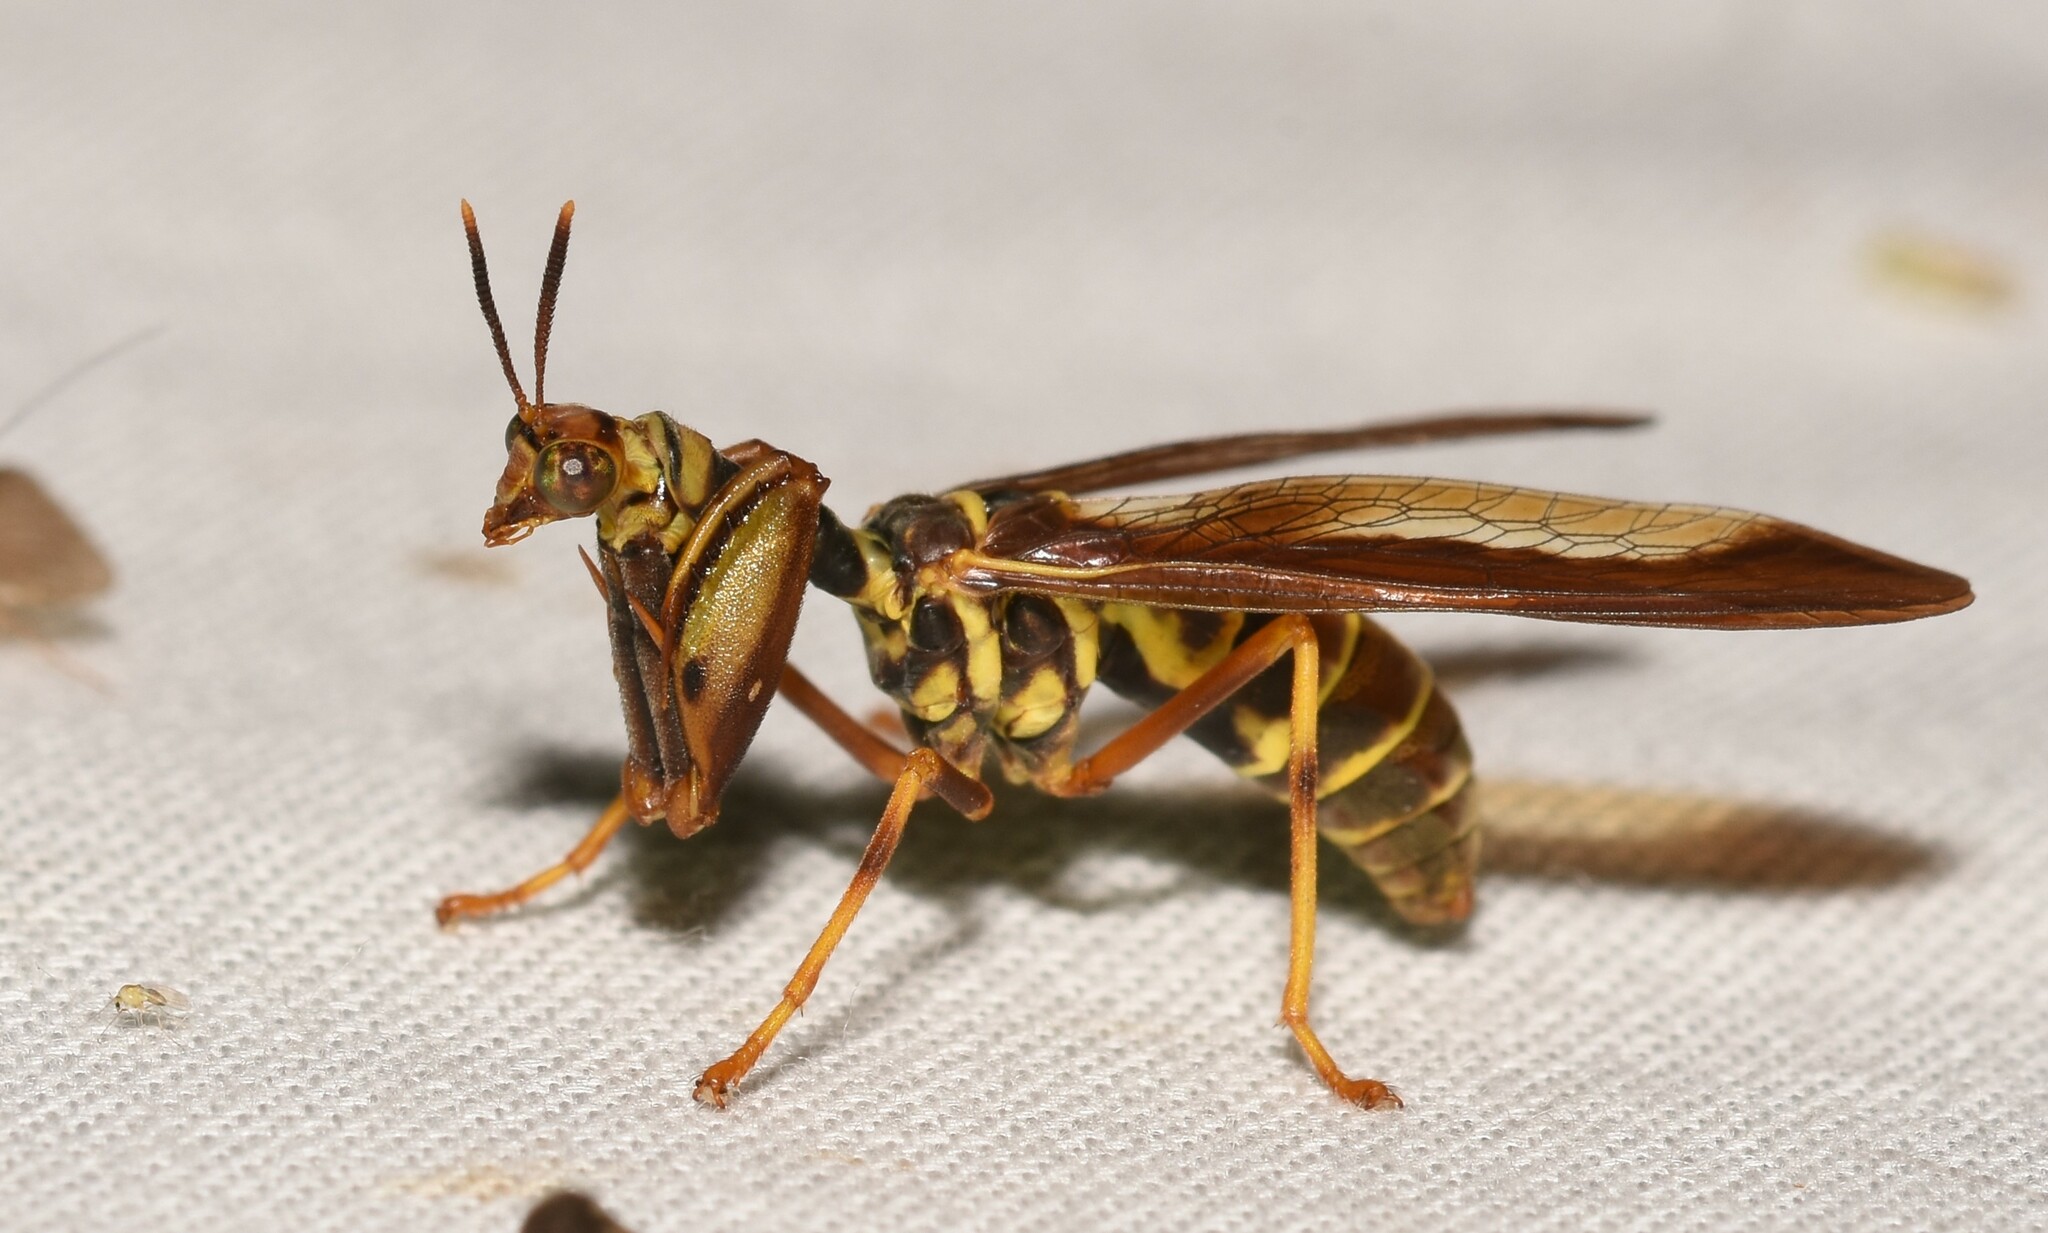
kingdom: Animalia
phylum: Arthropoda
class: Insecta
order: Neuroptera
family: Mantispidae
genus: Climaciella
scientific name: Climaciella brunnea
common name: Brown wasp mantidfly
